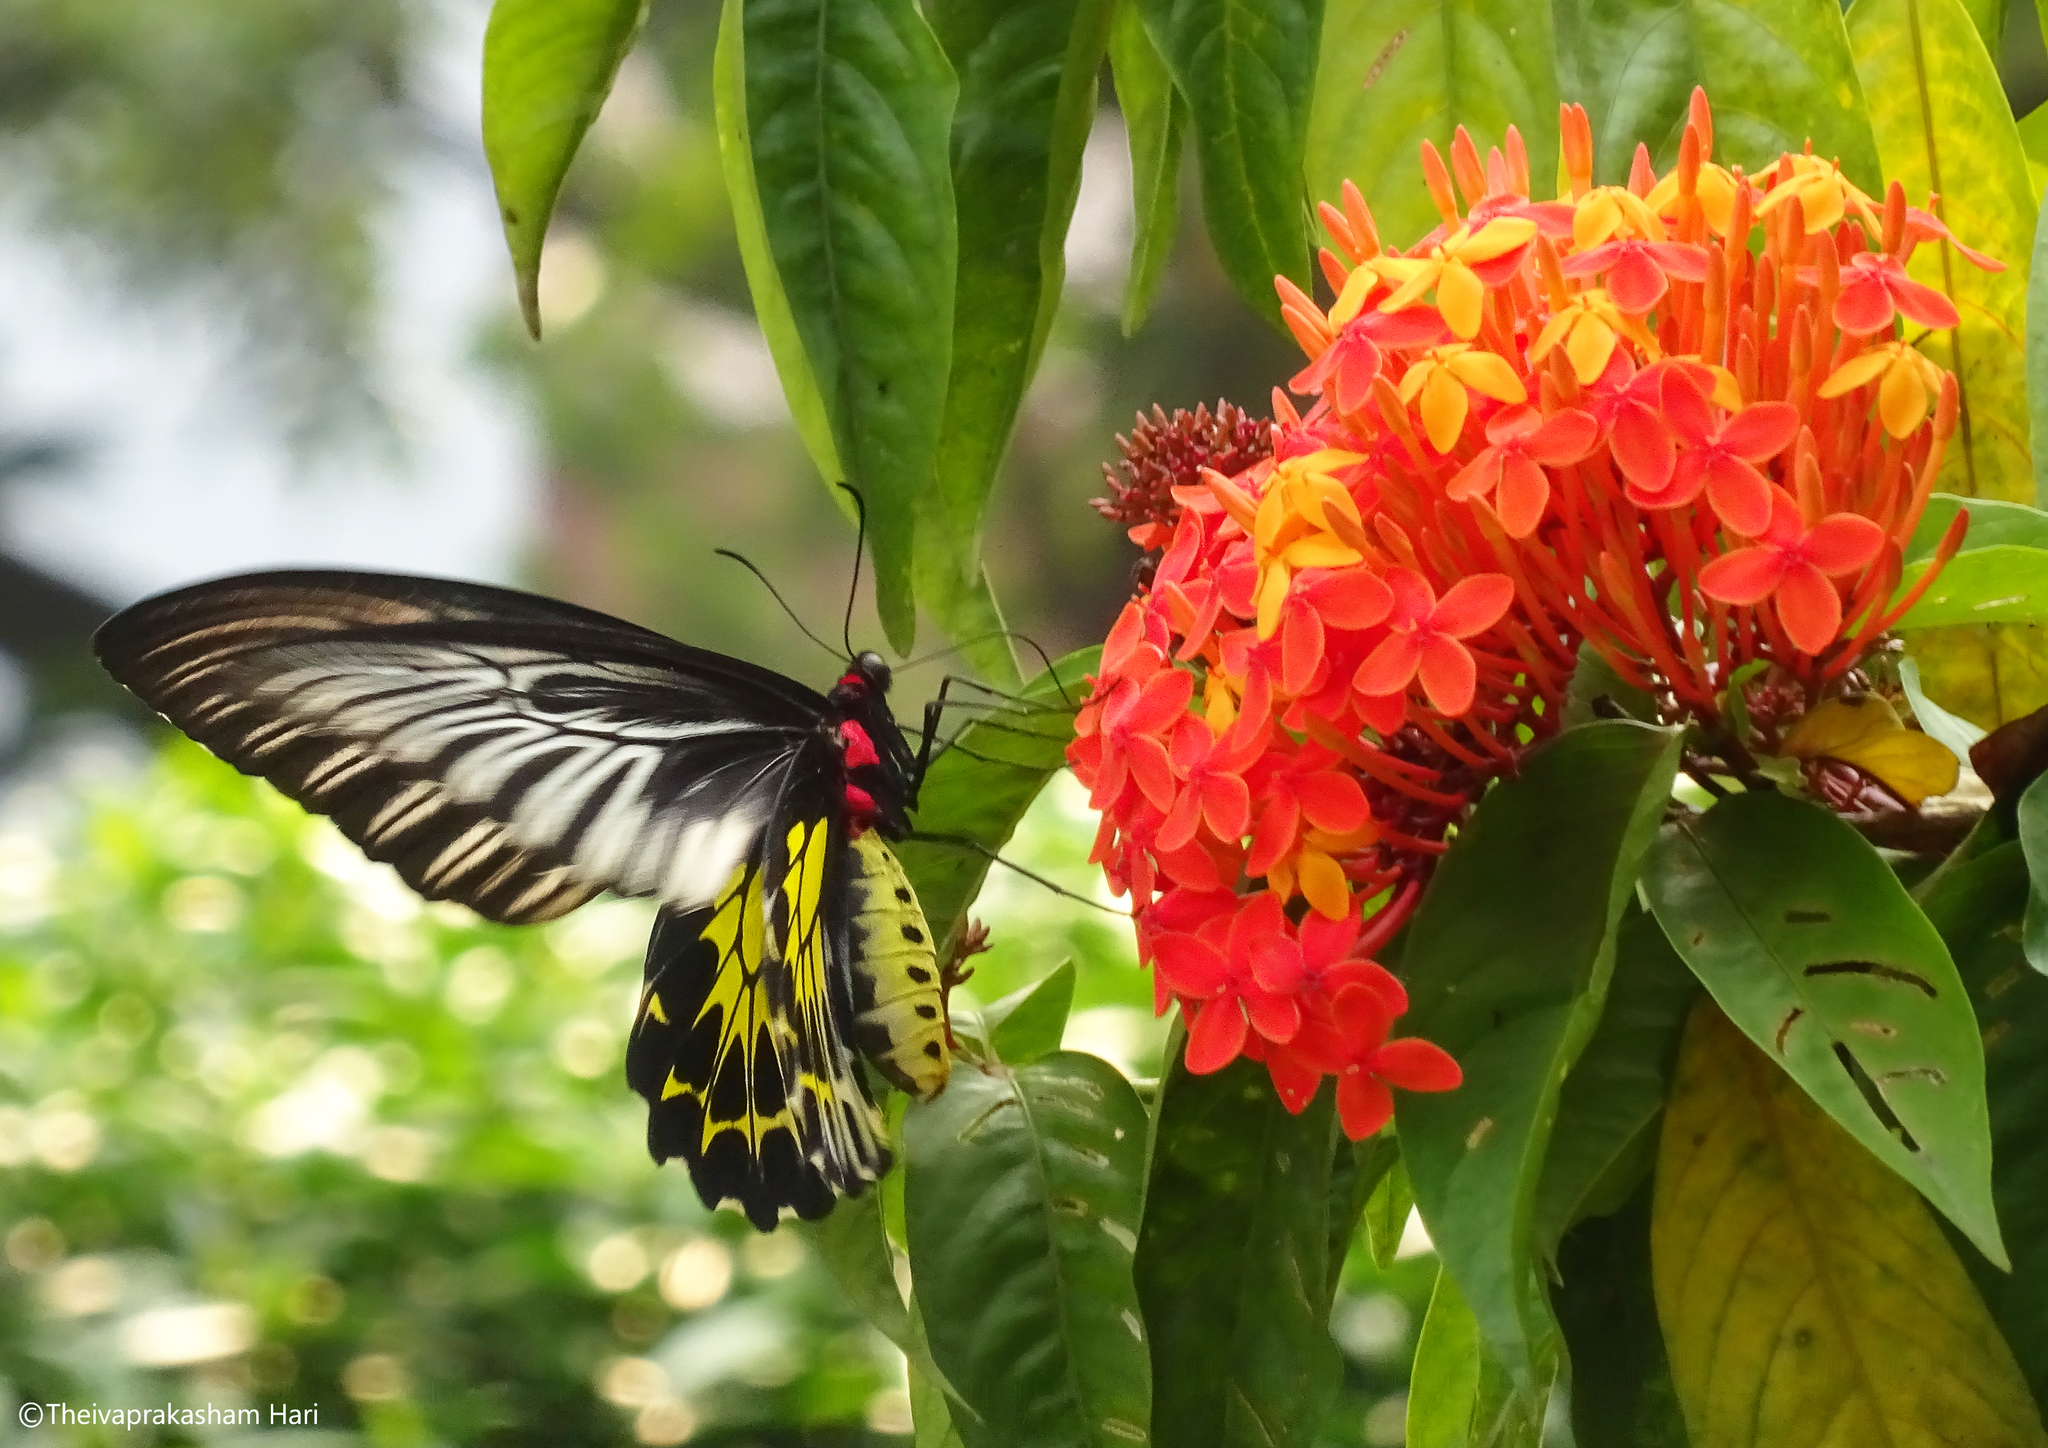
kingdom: Animalia
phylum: Arthropoda
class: Insecta
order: Lepidoptera
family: Papilionidae
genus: Troides
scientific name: Troides minos
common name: Malabar birdwing
